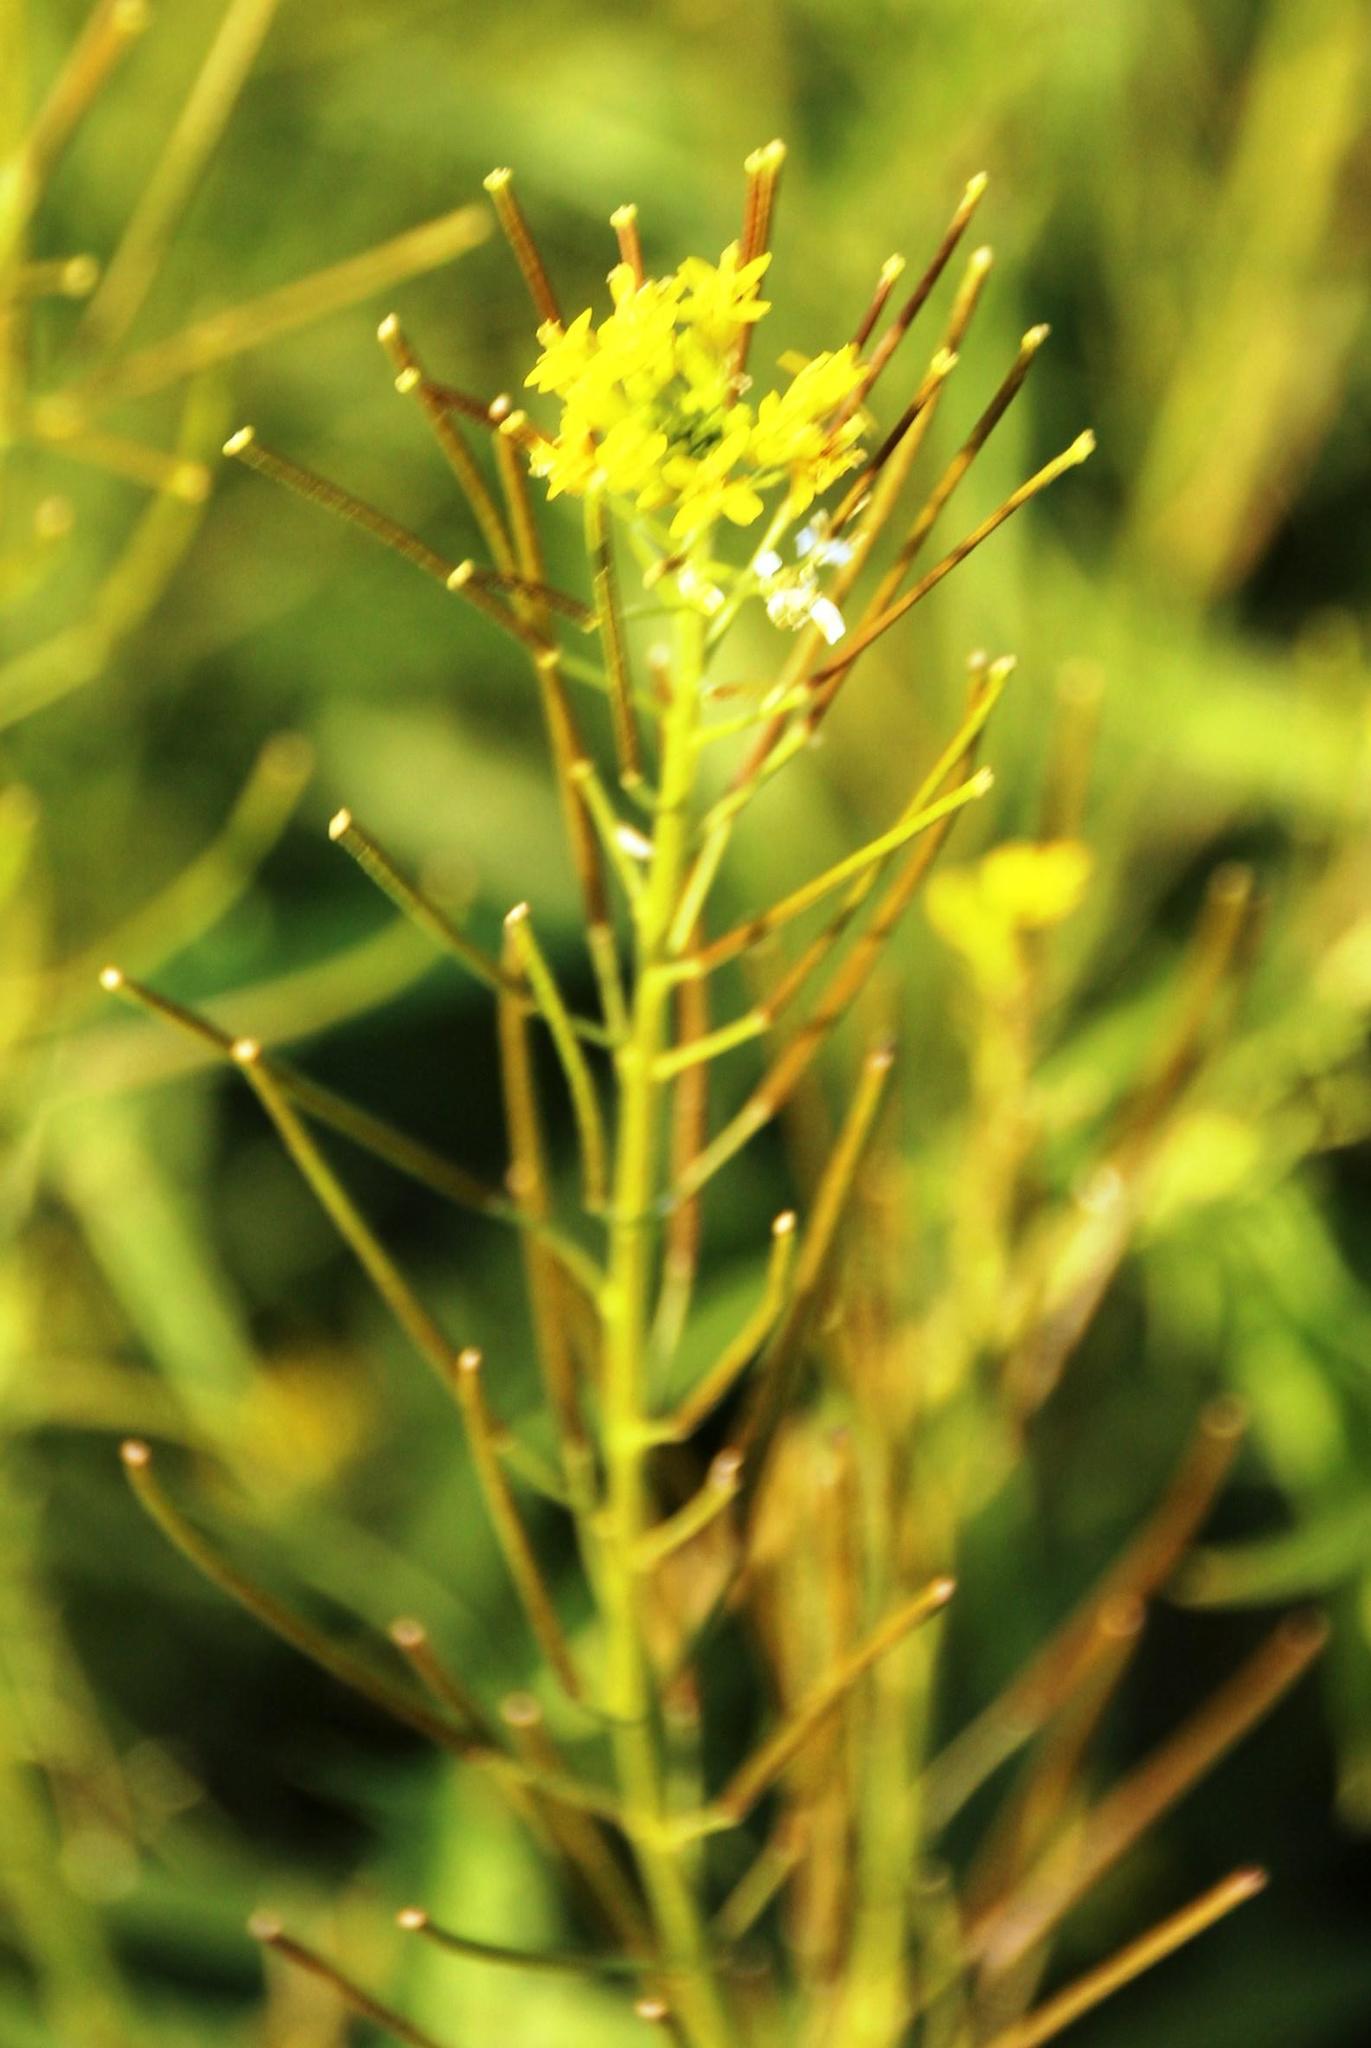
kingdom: Plantae
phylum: Tracheophyta
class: Magnoliopsida
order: Brassicales
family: Brassicaceae
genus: Sisymbrium
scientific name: Sisymbrium irio
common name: London rocket
